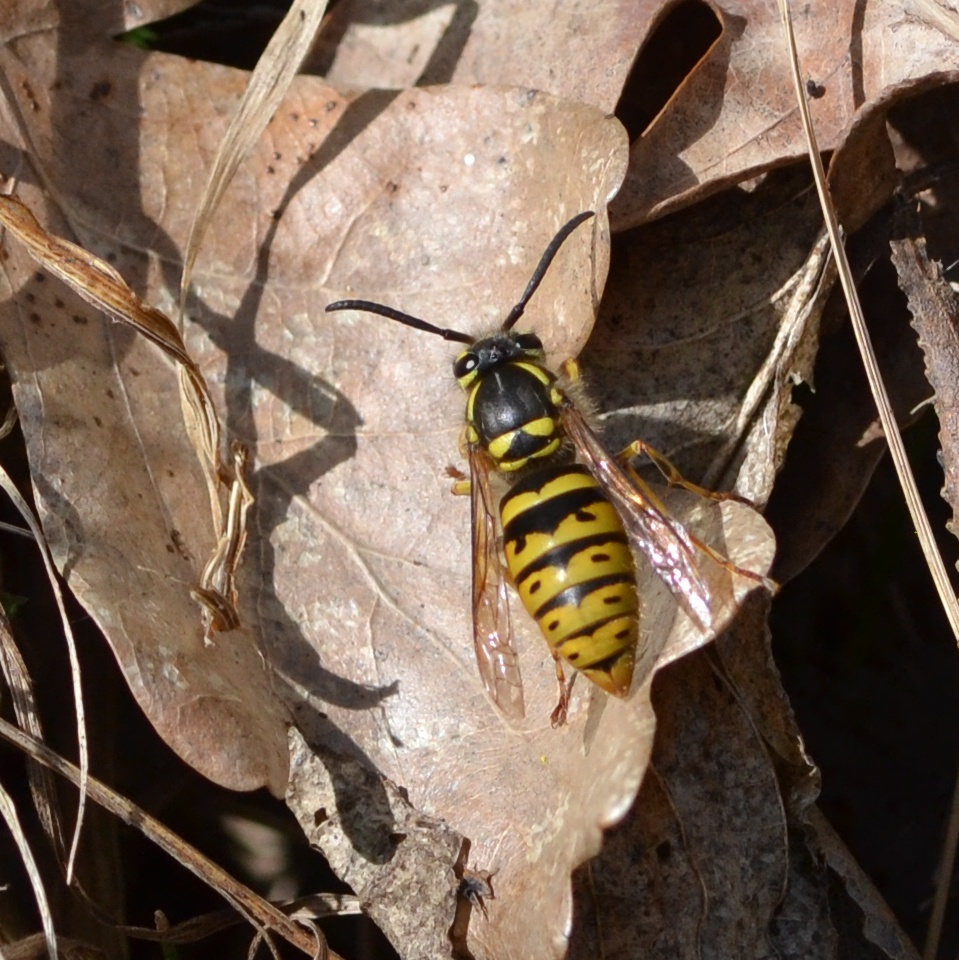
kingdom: Animalia
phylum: Arthropoda
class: Insecta
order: Hymenoptera
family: Vespidae
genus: Vespula
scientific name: Vespula vulgaris
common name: Common wasp
